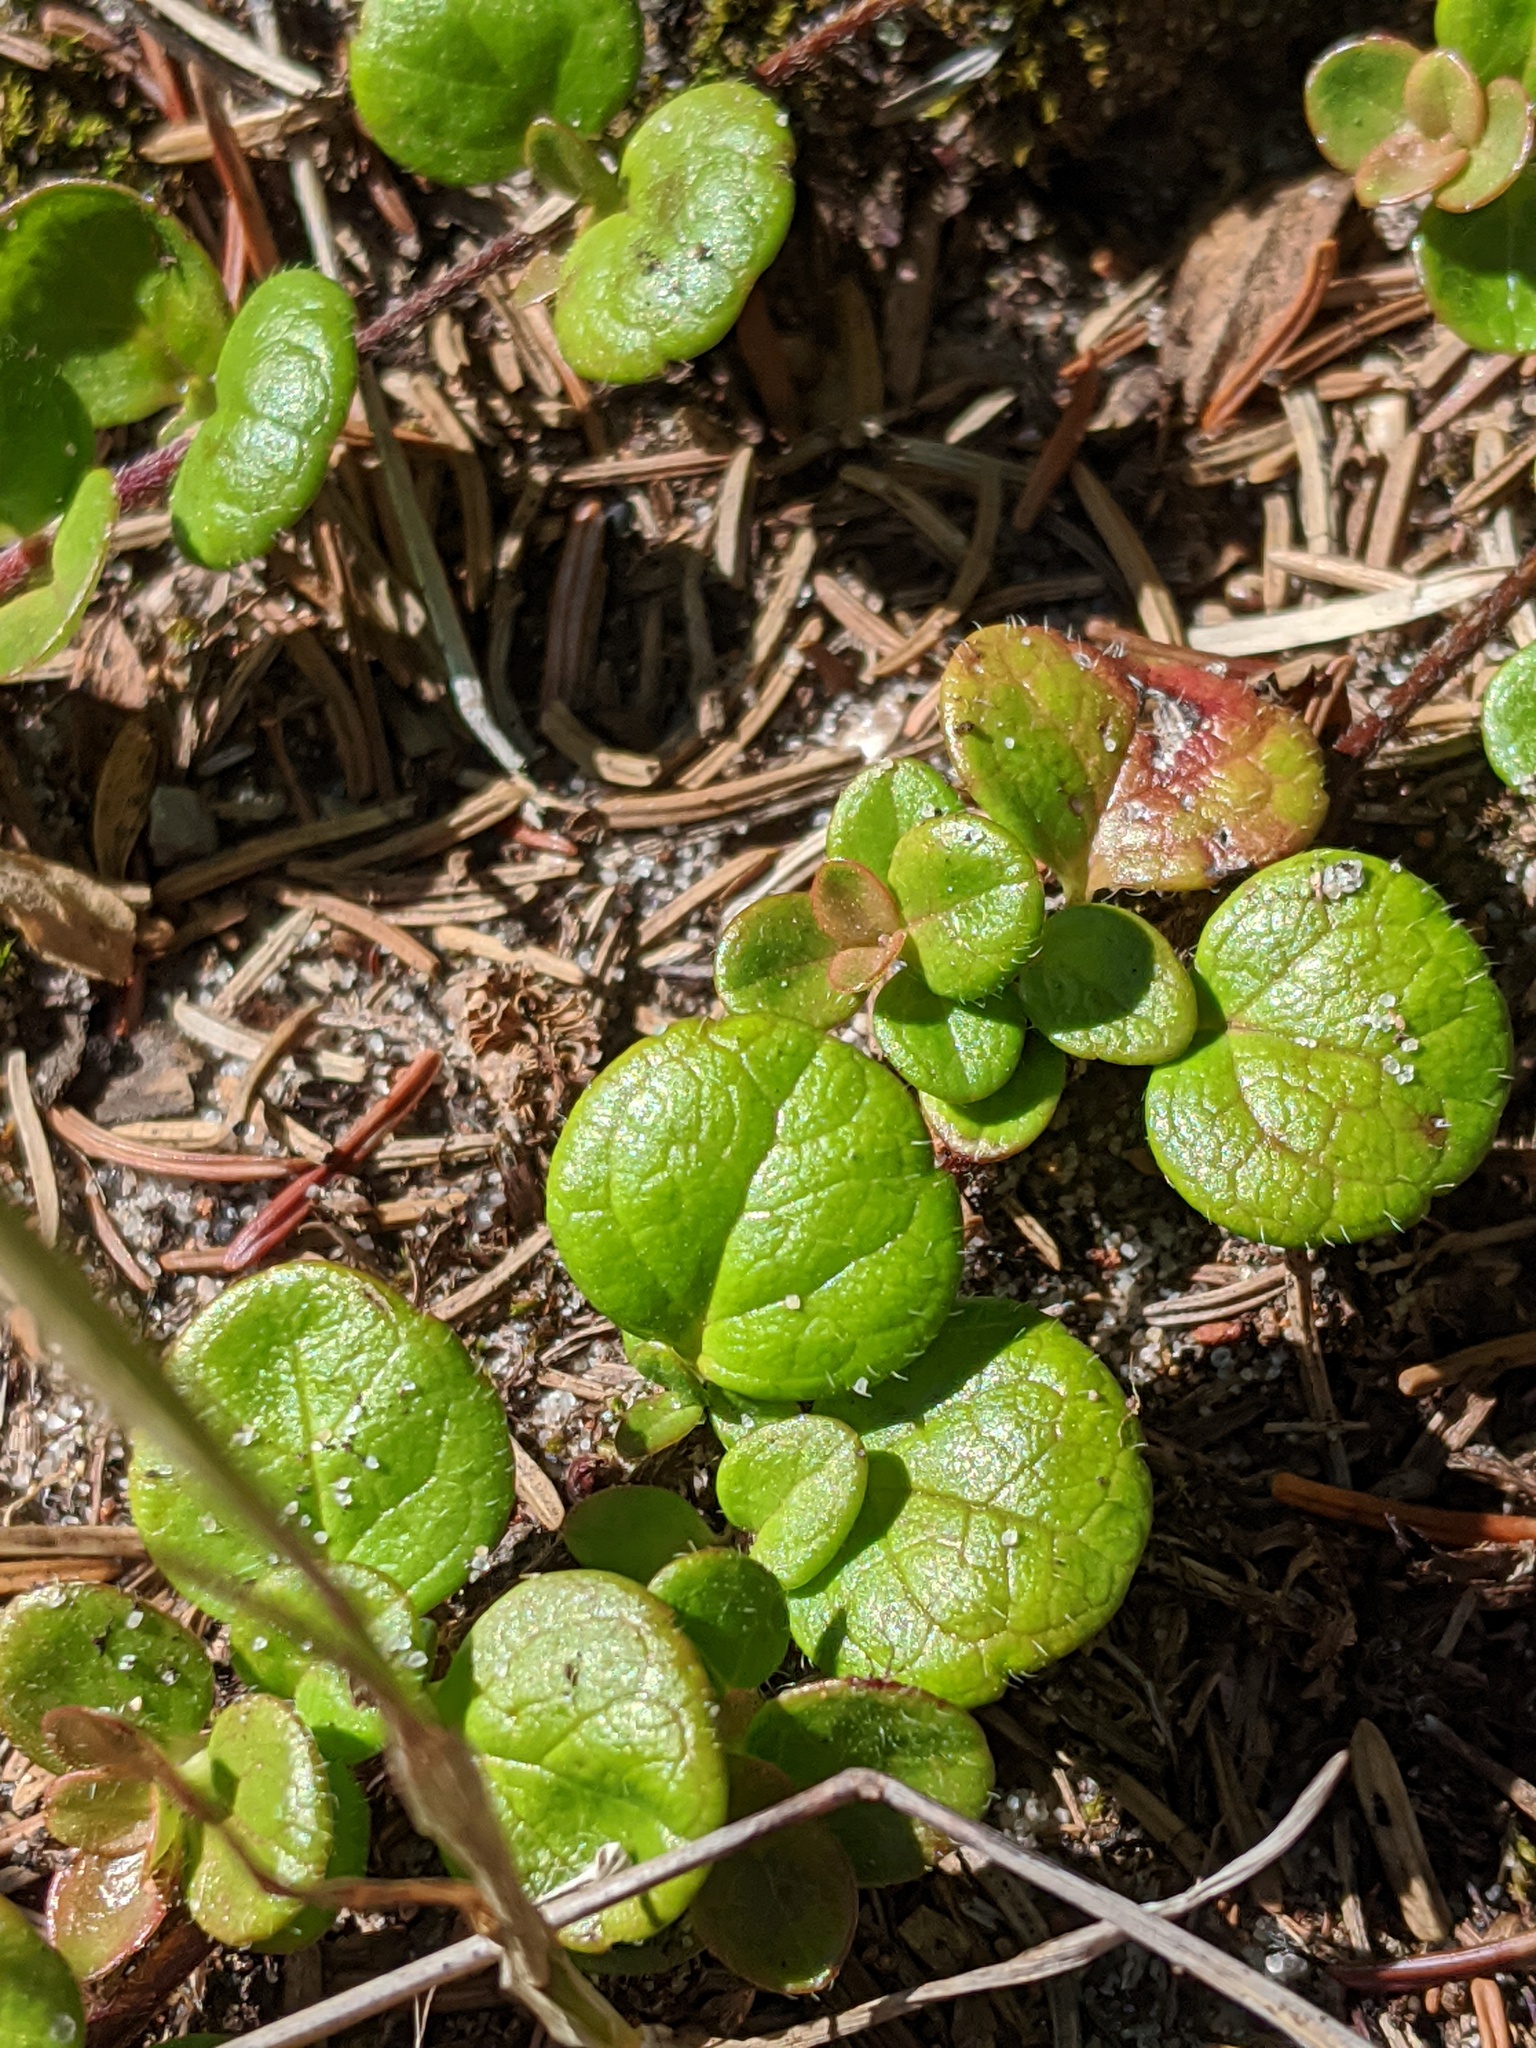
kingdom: Plantae
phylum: Tracheophyta
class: Magnoliopsida
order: Dipsacales
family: Caprifoliaceae
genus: Linnaea
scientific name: Linnaea borealis
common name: Twinflower
